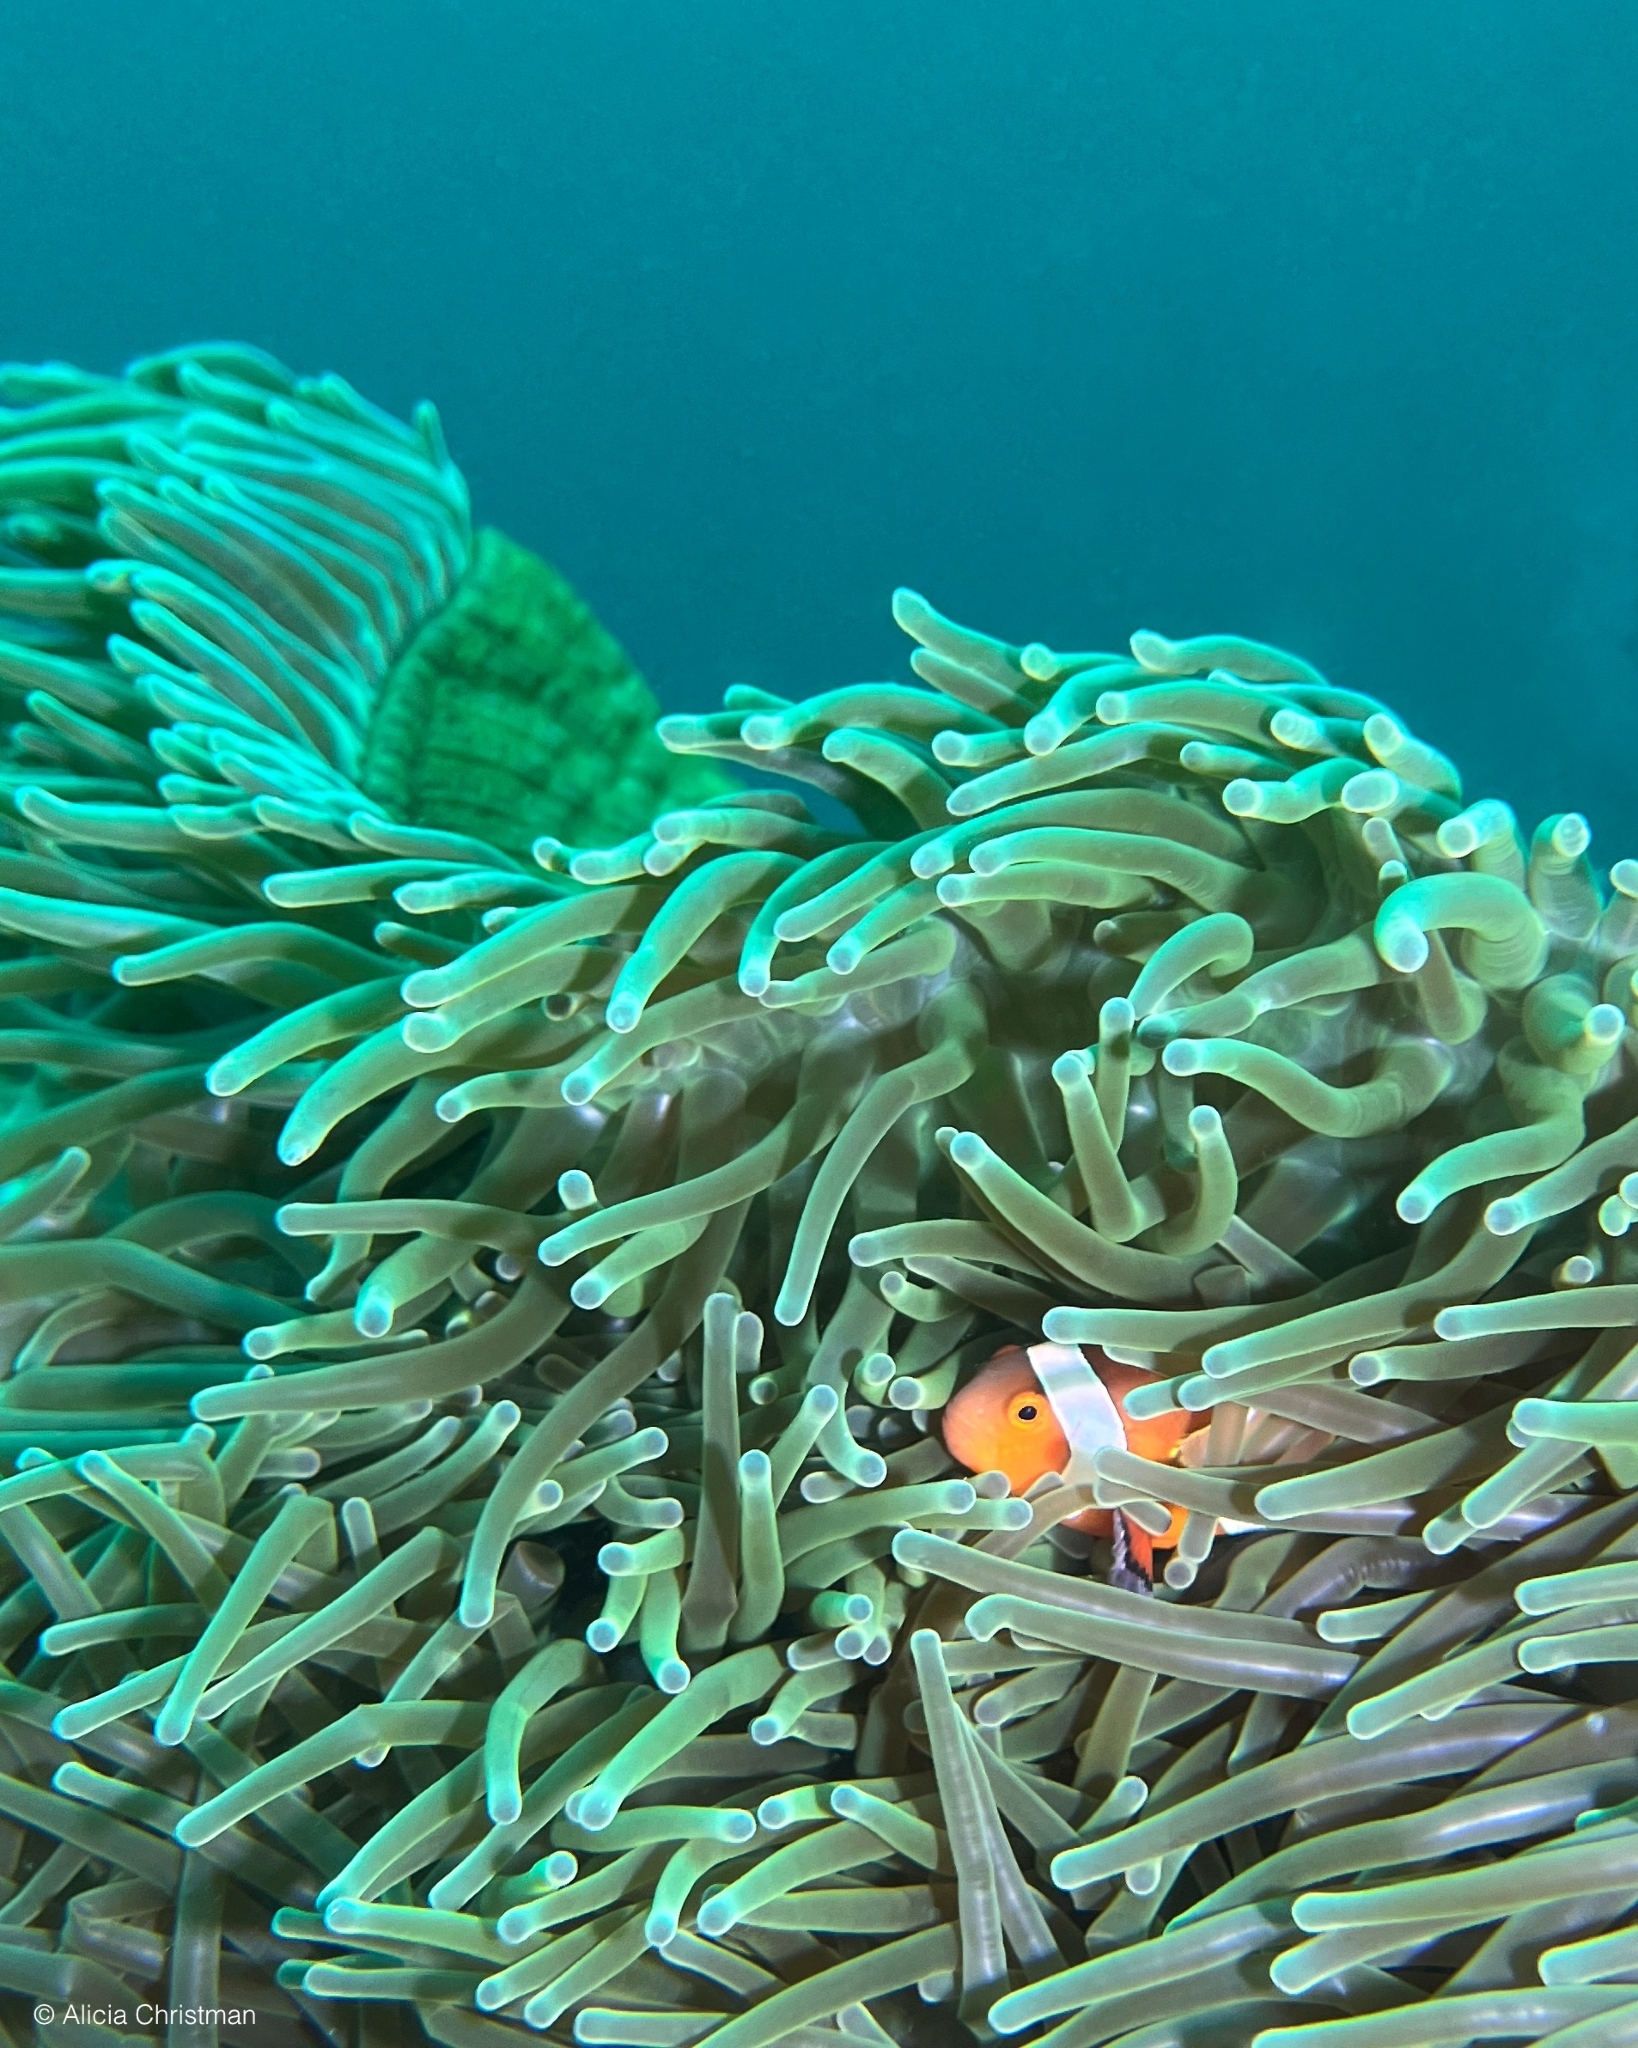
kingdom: Animalia
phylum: Chordata
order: Perciformes
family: Pomacentridae
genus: Amphiprion
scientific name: Amphiprion ocellaris
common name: Clown anemonefish
